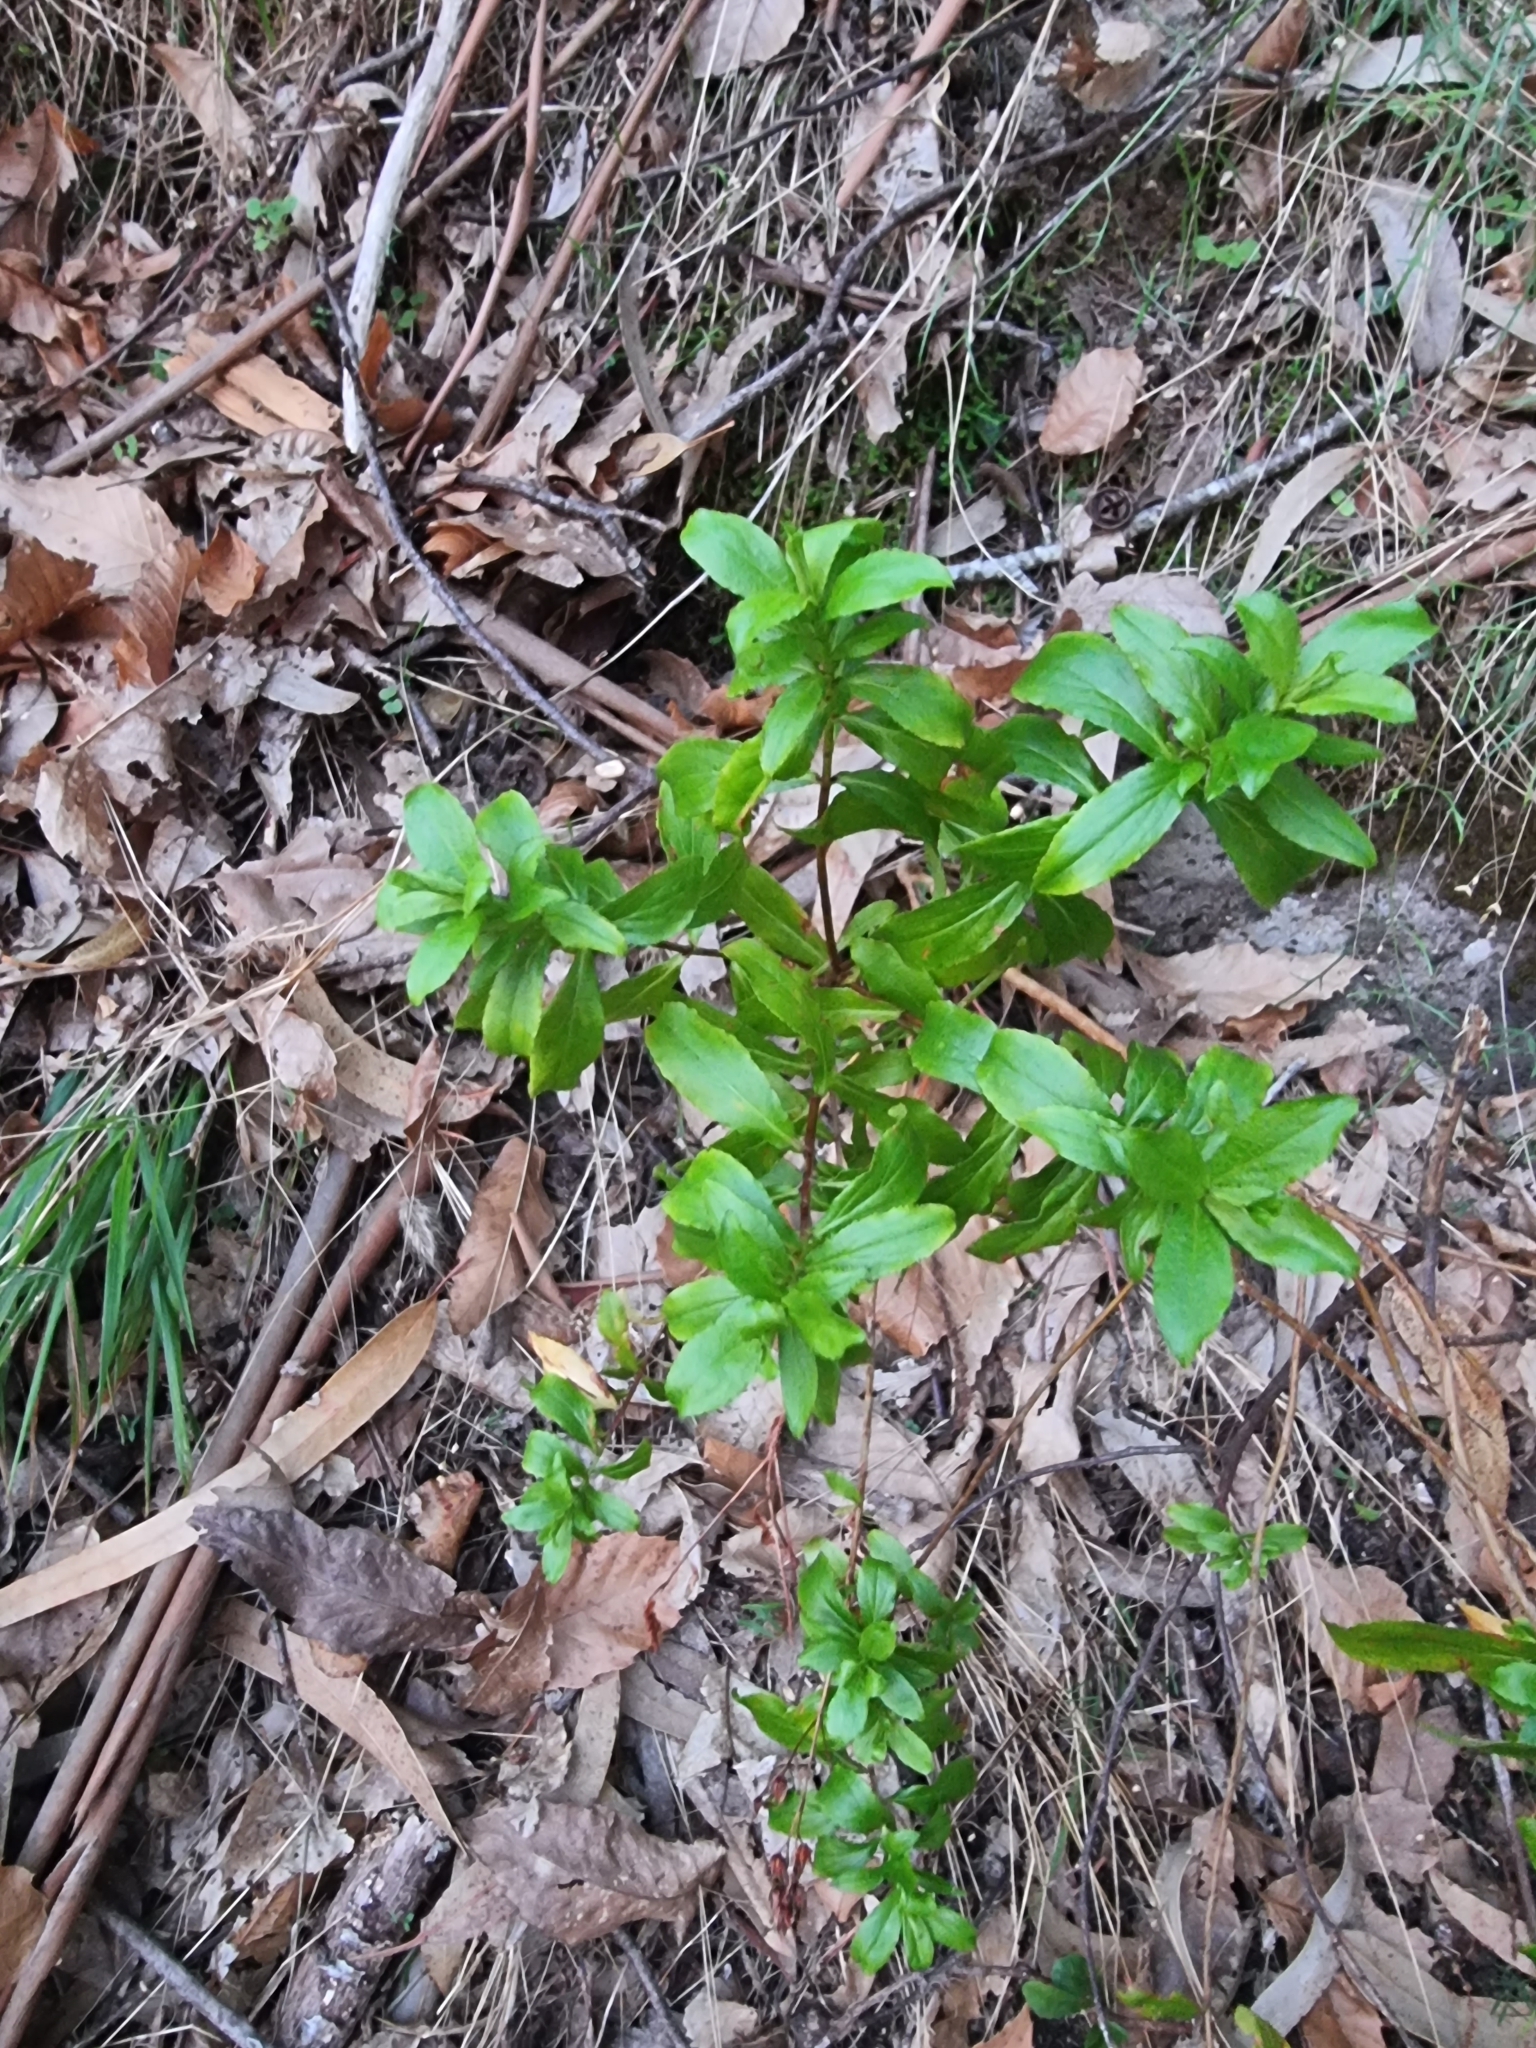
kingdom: Plantae
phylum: Tracheophyta
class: Magnoliopsida
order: Malpighiales
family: Hypericaceae
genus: Hypericum
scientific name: Hypericum glandulosum
